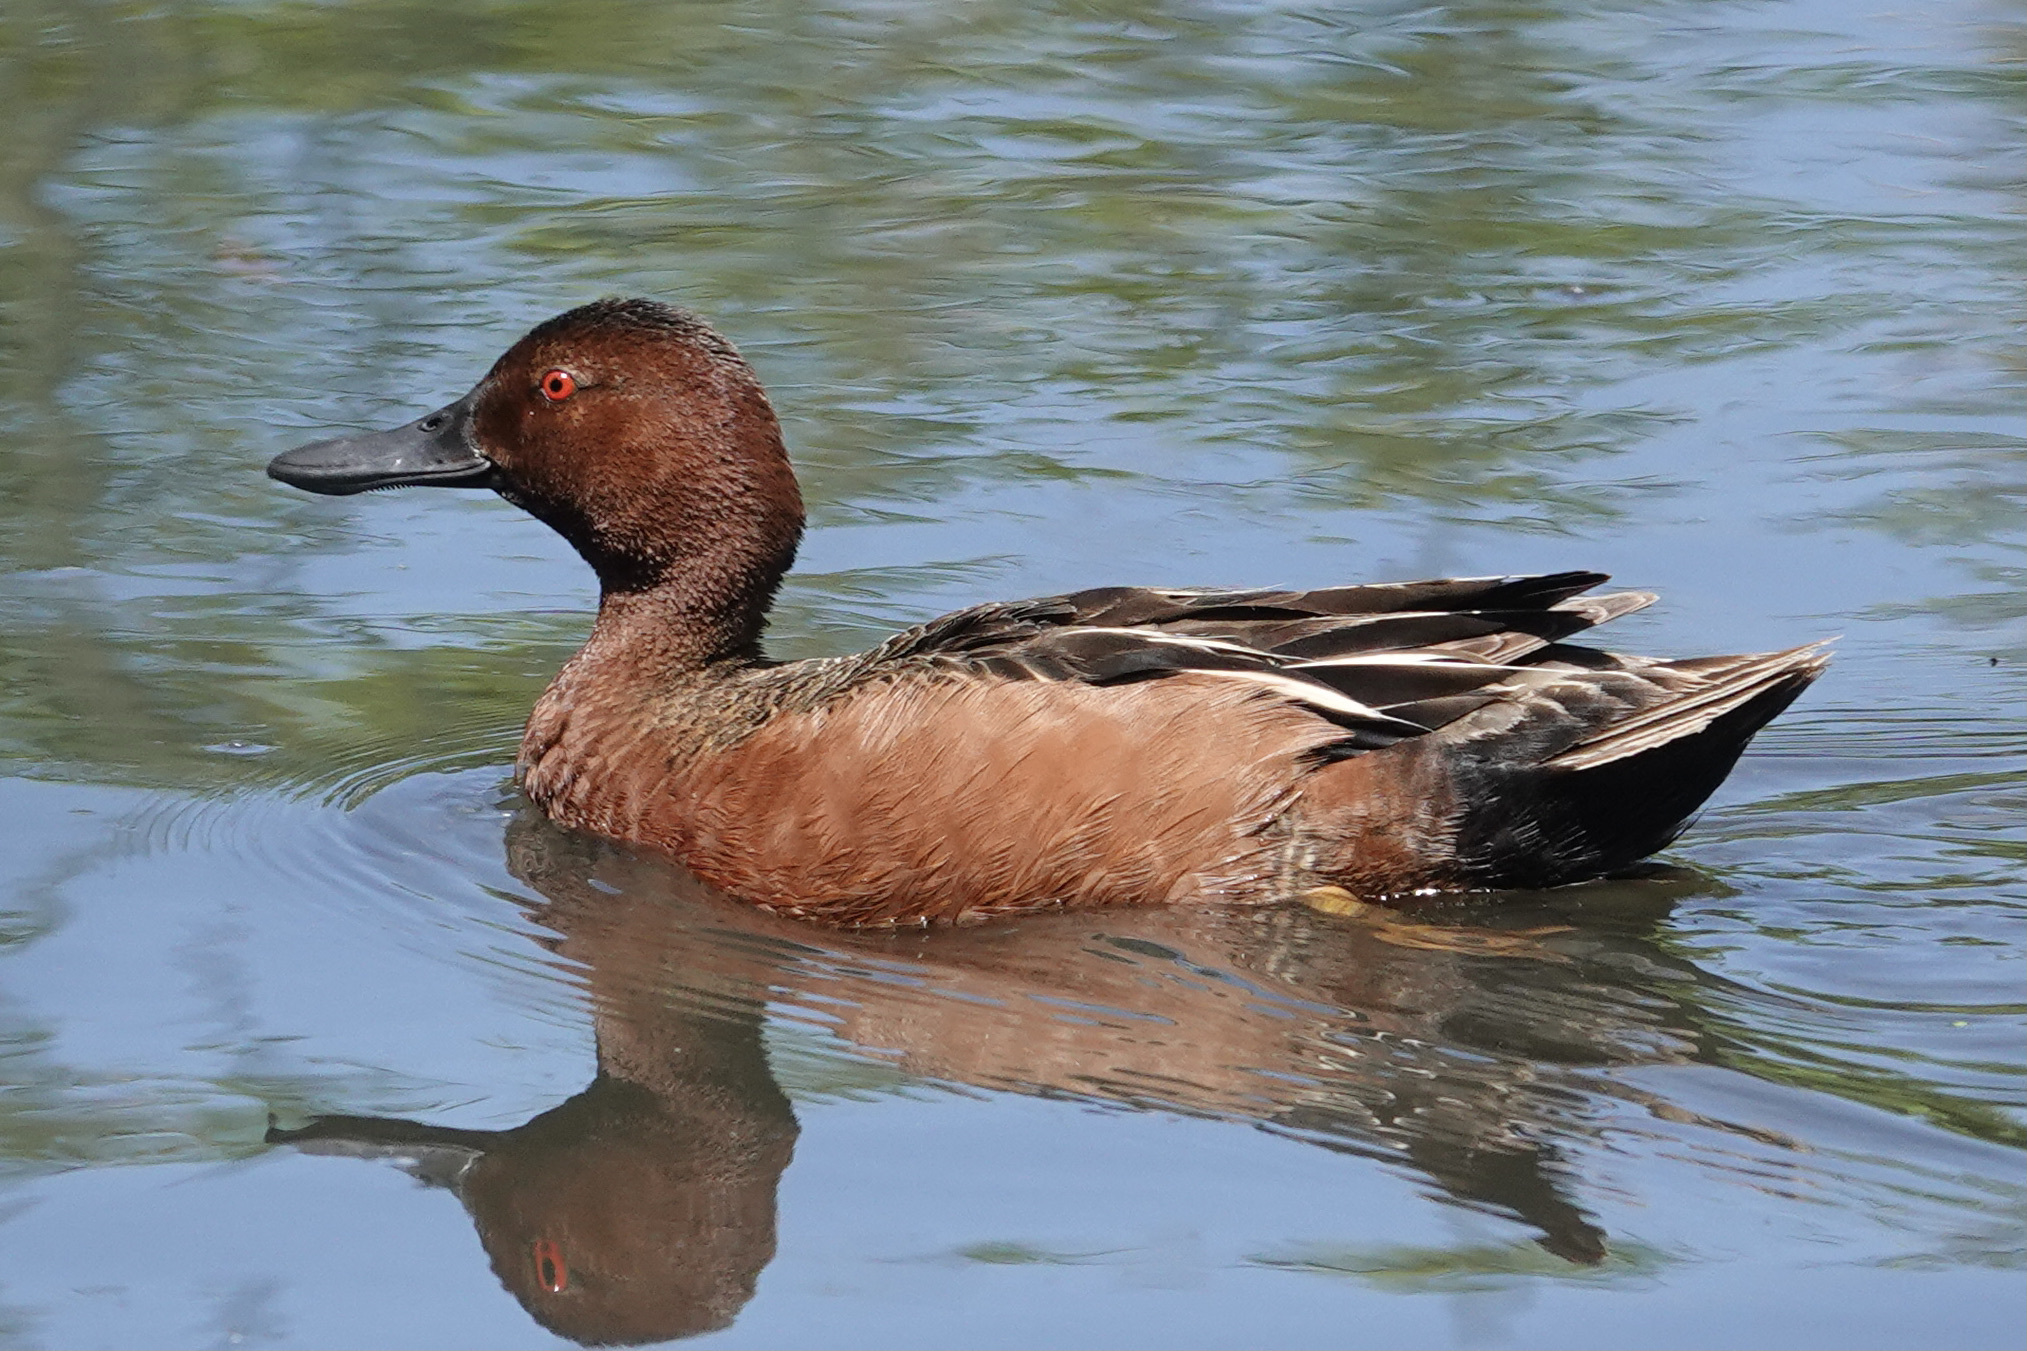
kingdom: Animalia
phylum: Chordata
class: Aves
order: Anseriformes
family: Anatidae
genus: Spatula
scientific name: Spatula cyanoptera
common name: Cinnamon teal
